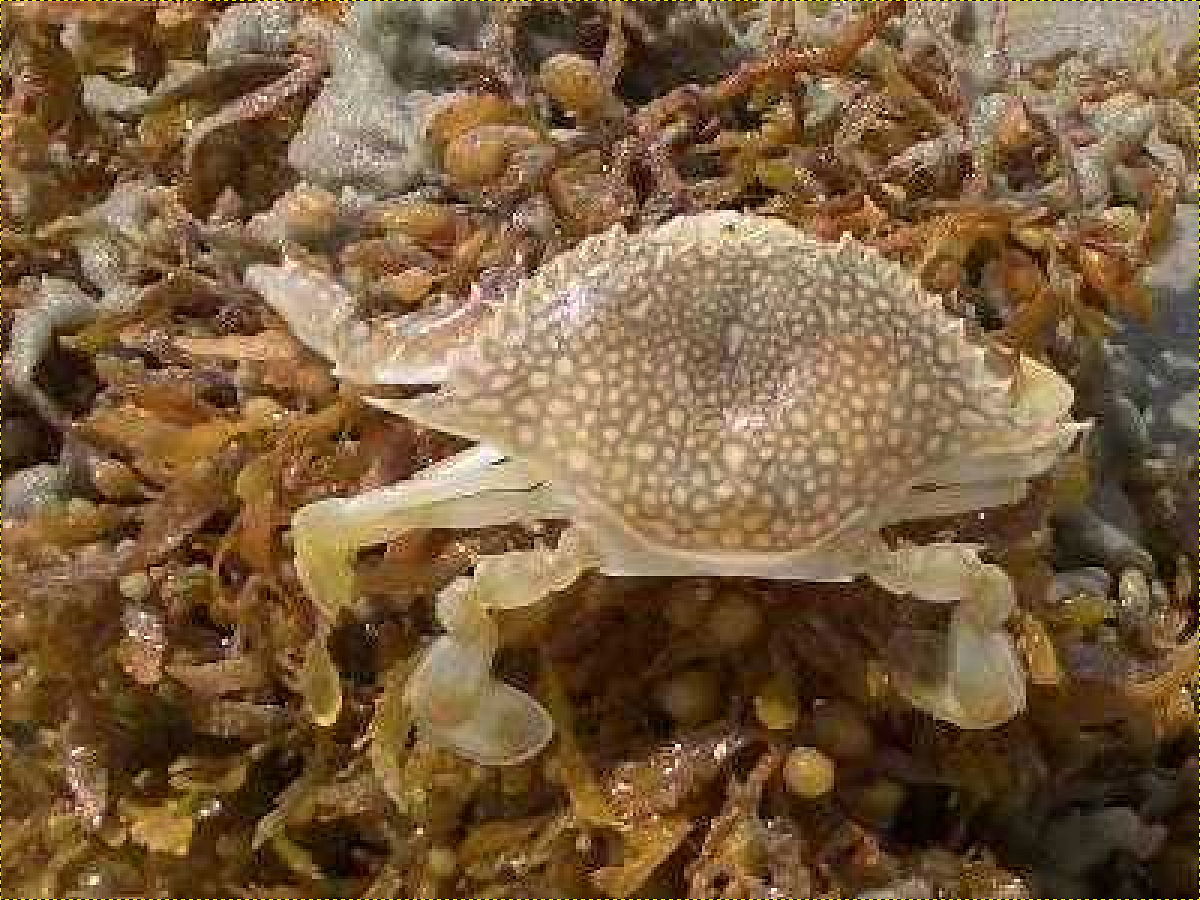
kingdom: Animalia
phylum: Arthropoda
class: Malacostraca
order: Decapoda
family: Portunidae
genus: Arenaeus
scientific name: Arenaeus cribrarius
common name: Speckled crab
